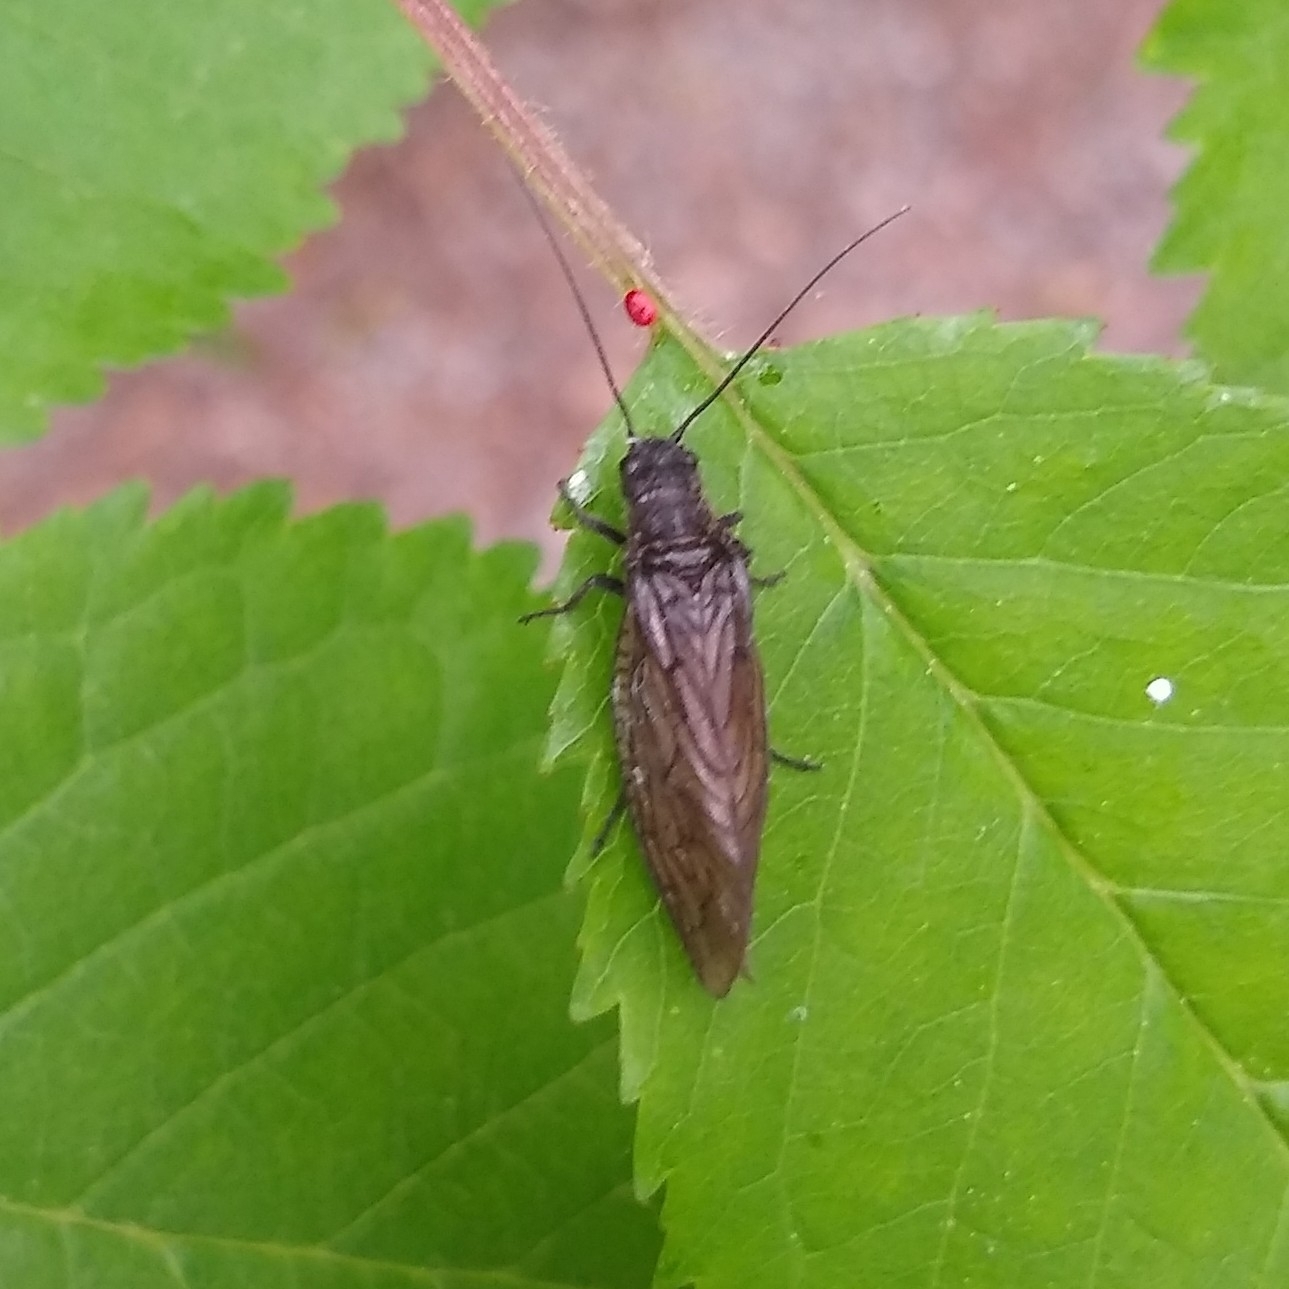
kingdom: Animalia
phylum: Arthropoda
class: Insecta
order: Megaloptera
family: Sialidae
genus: Sialis
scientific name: Sialis
